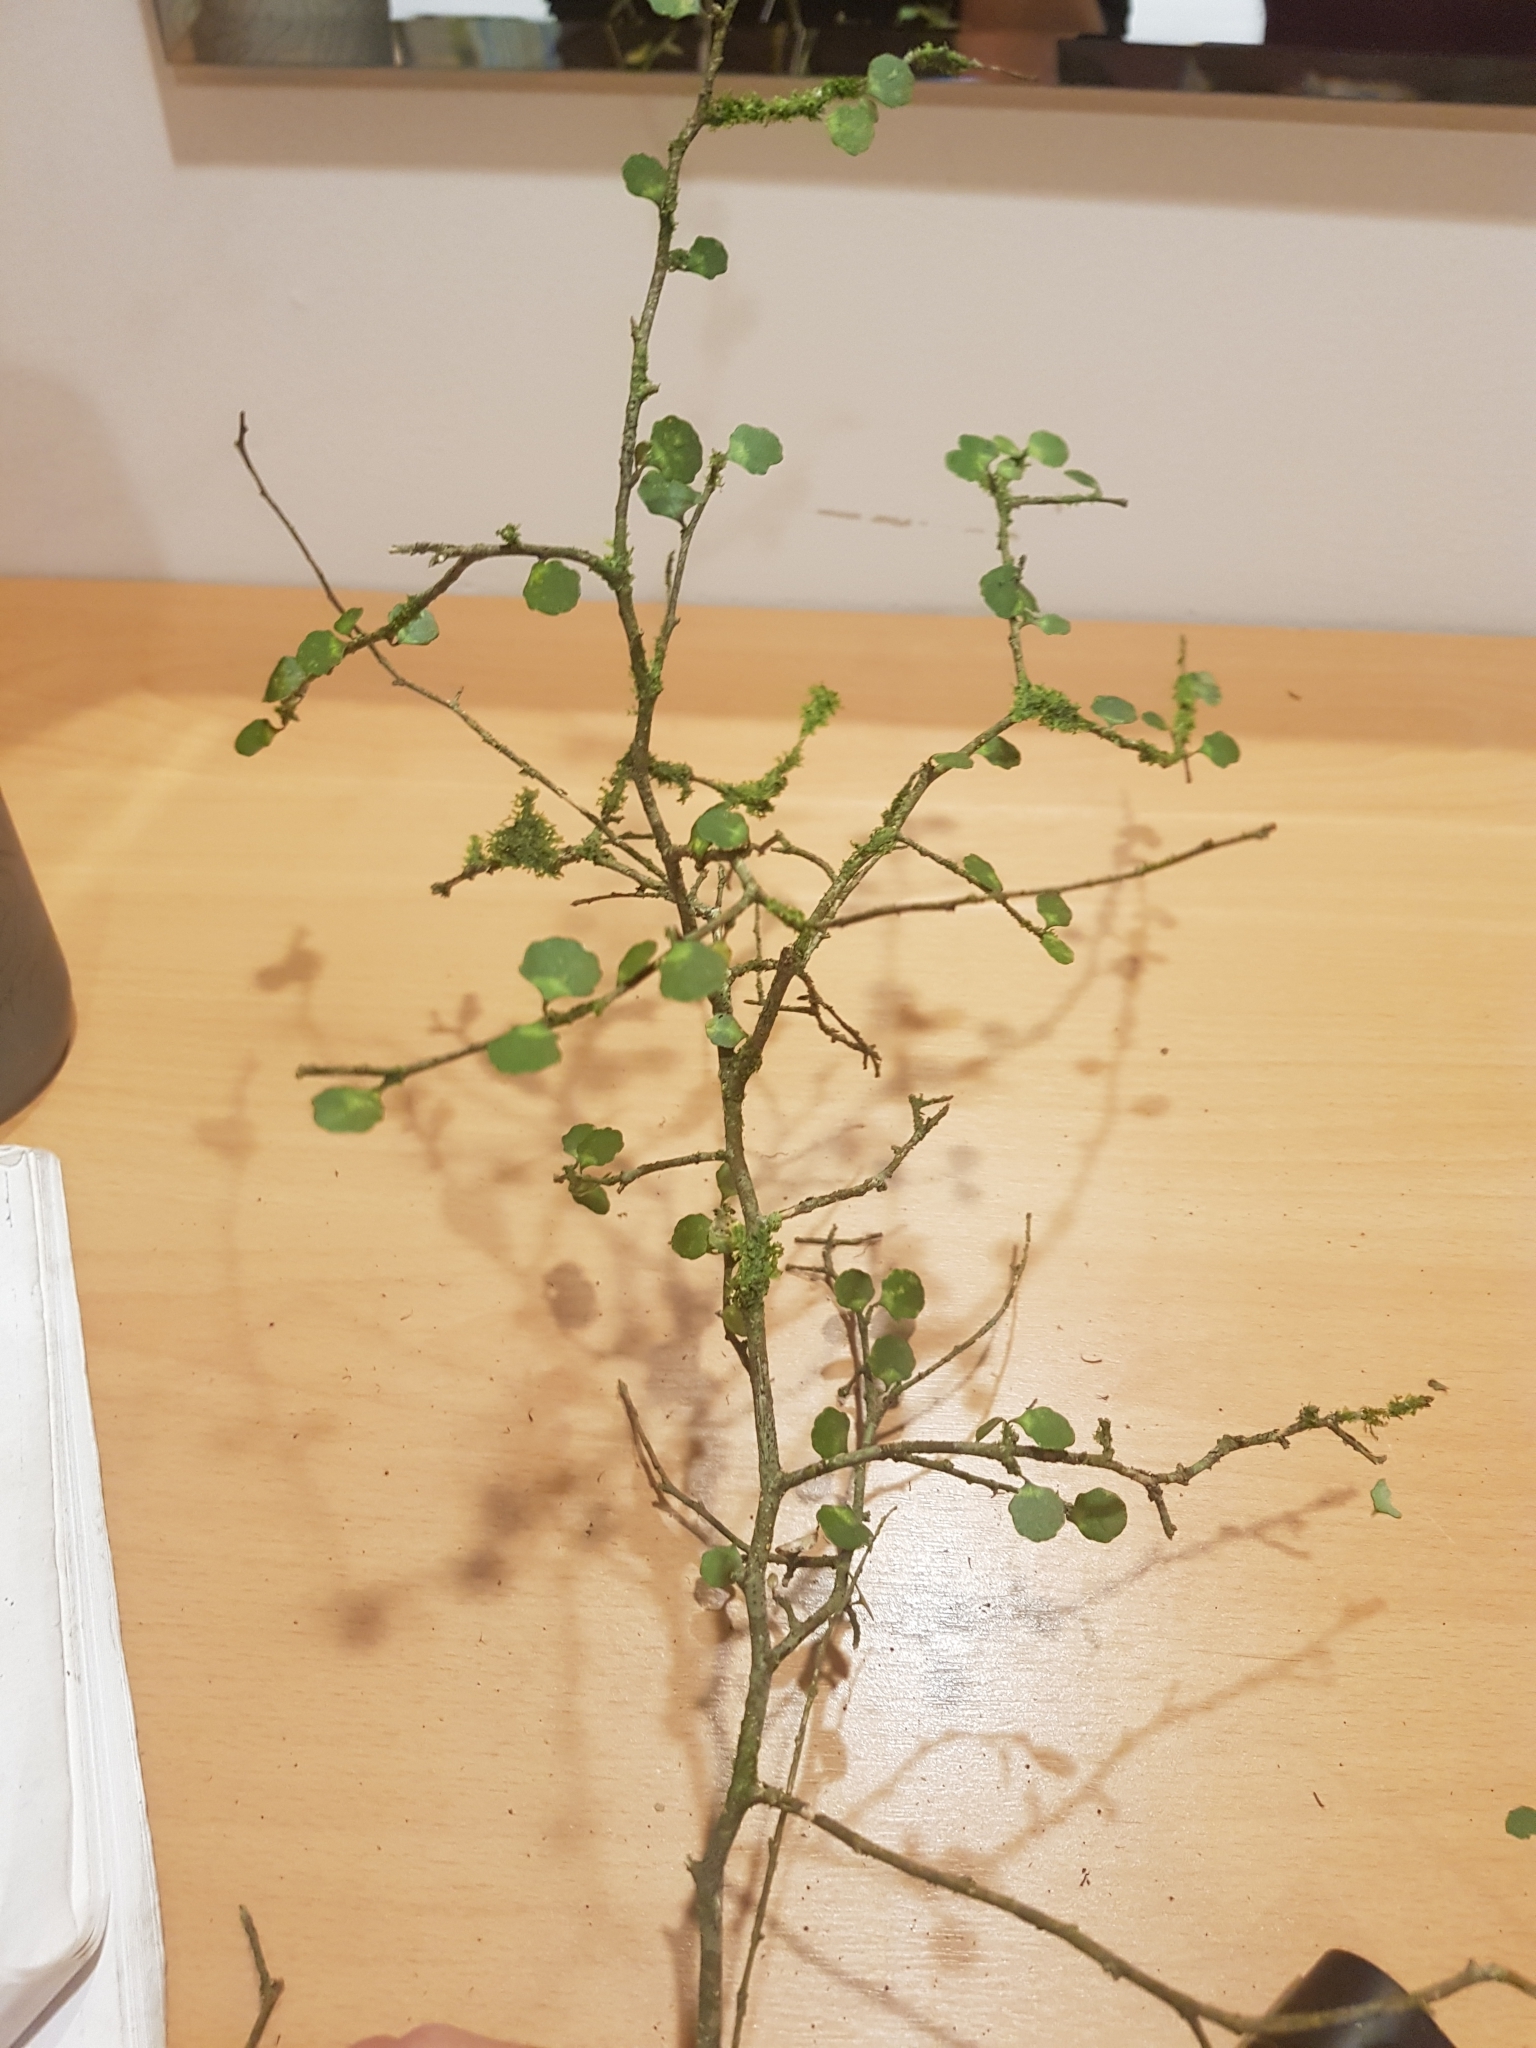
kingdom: Plantae
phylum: Tracheophyta
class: Magnoliopsida
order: Malpighiales
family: Violaceae
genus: Melicytus
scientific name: Melicytus micranthus
